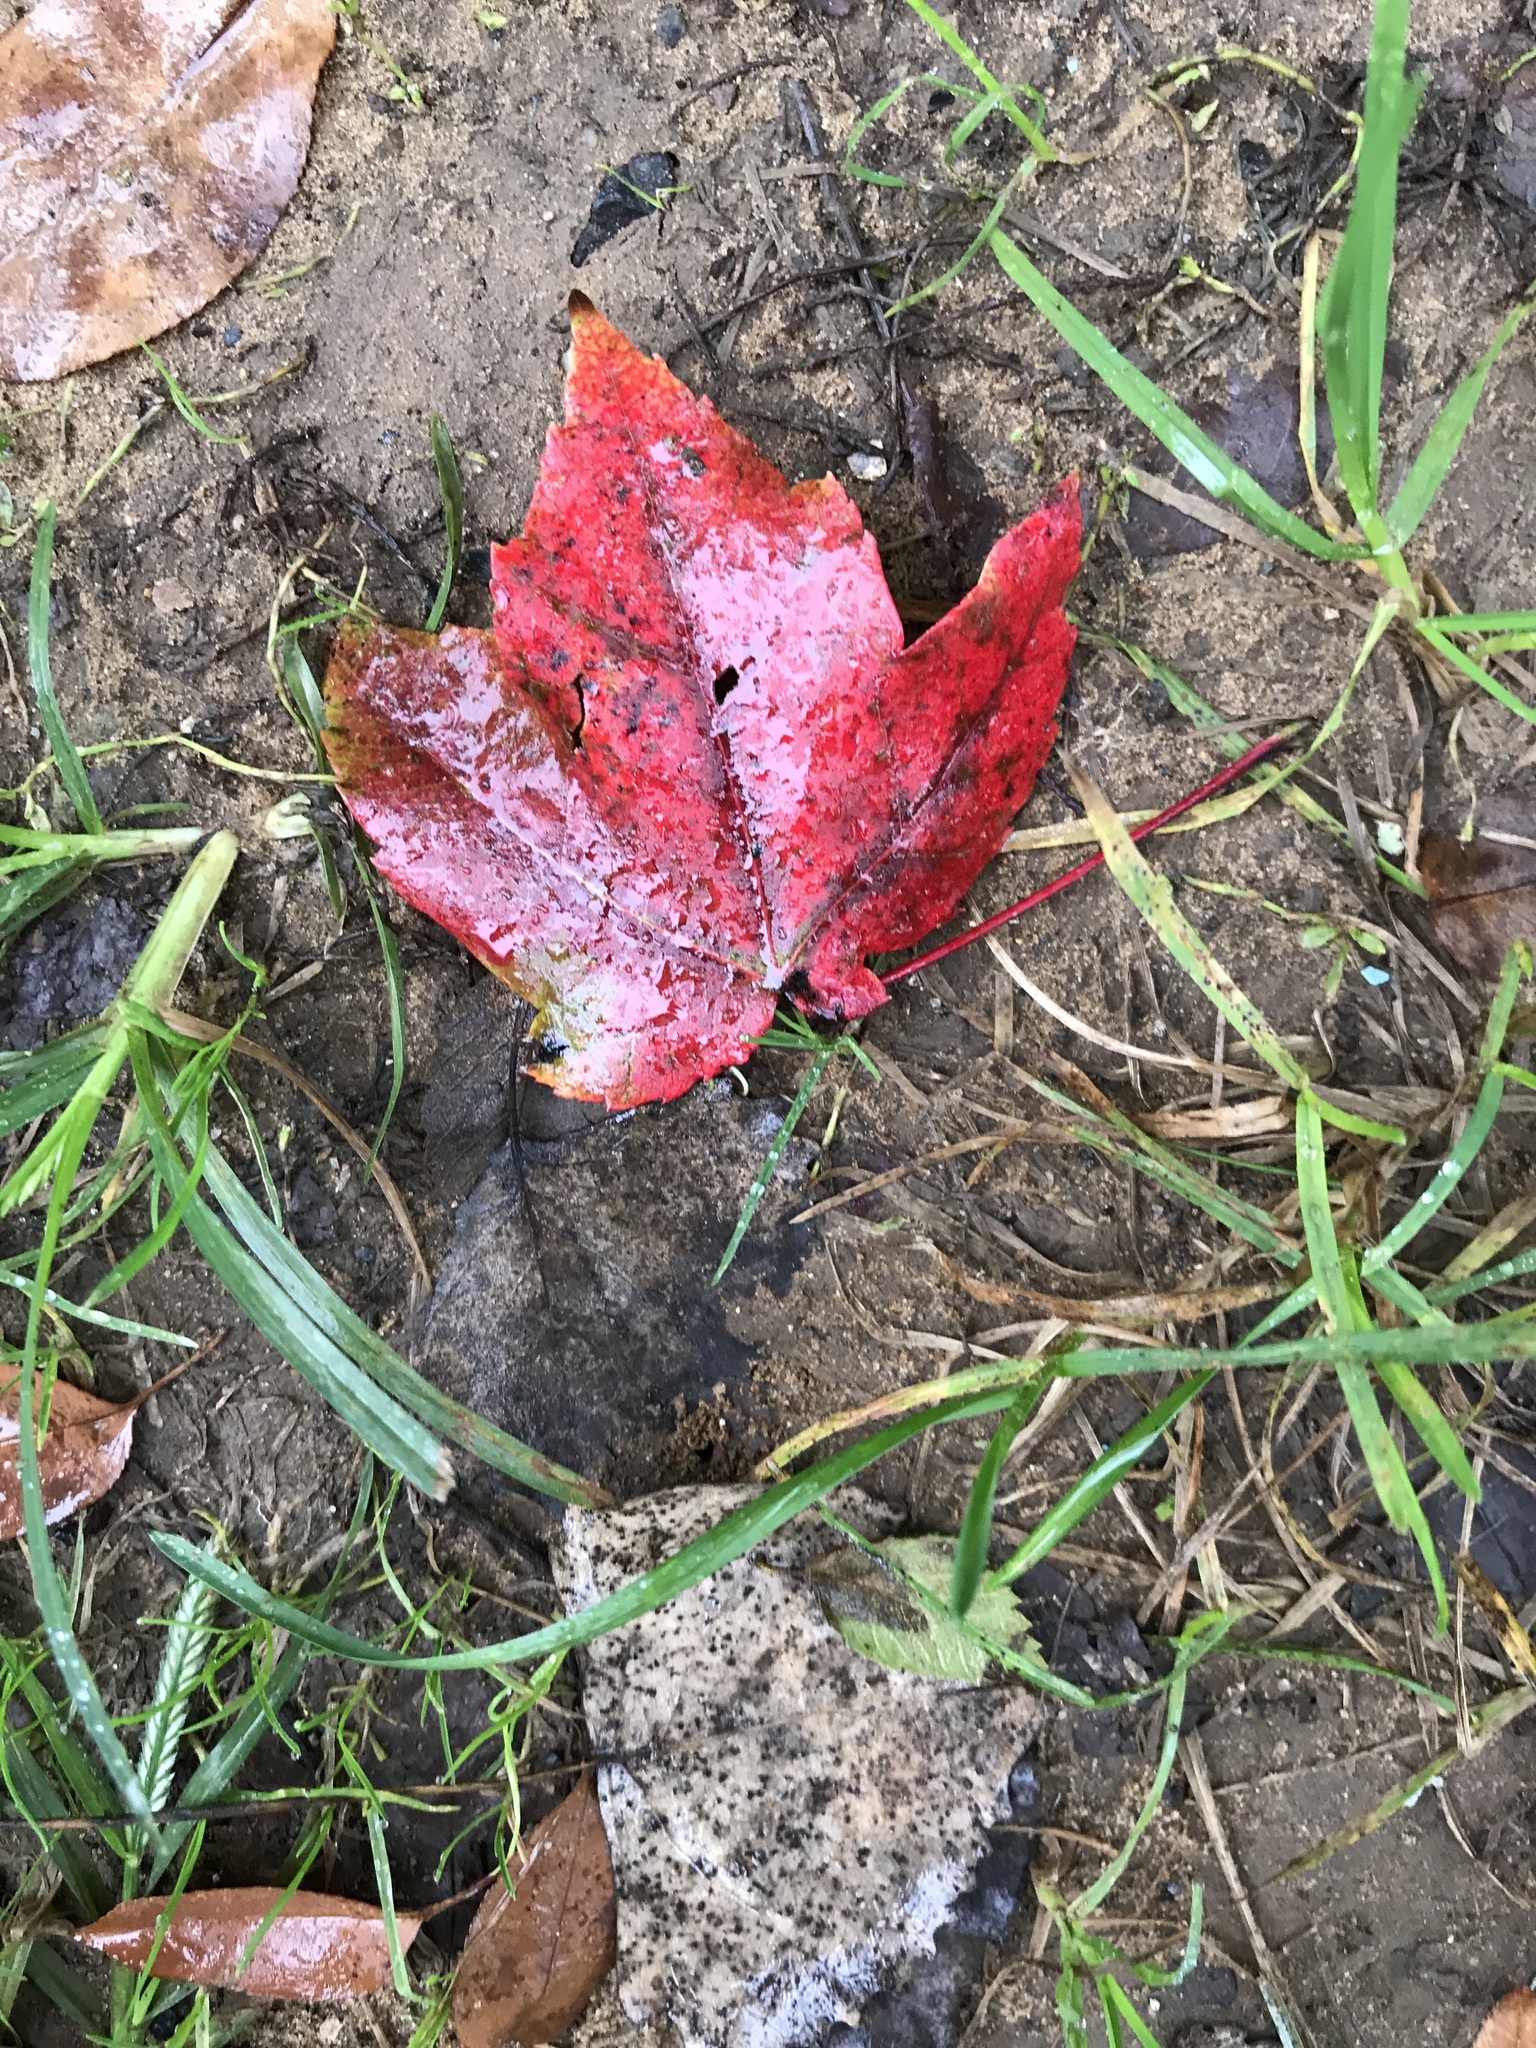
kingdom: Plantae
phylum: Tracheophyta
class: Magnoliopsida
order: Sapindales
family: Sapindaceae
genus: Acer
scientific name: Acer rubrum
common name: Red maple
